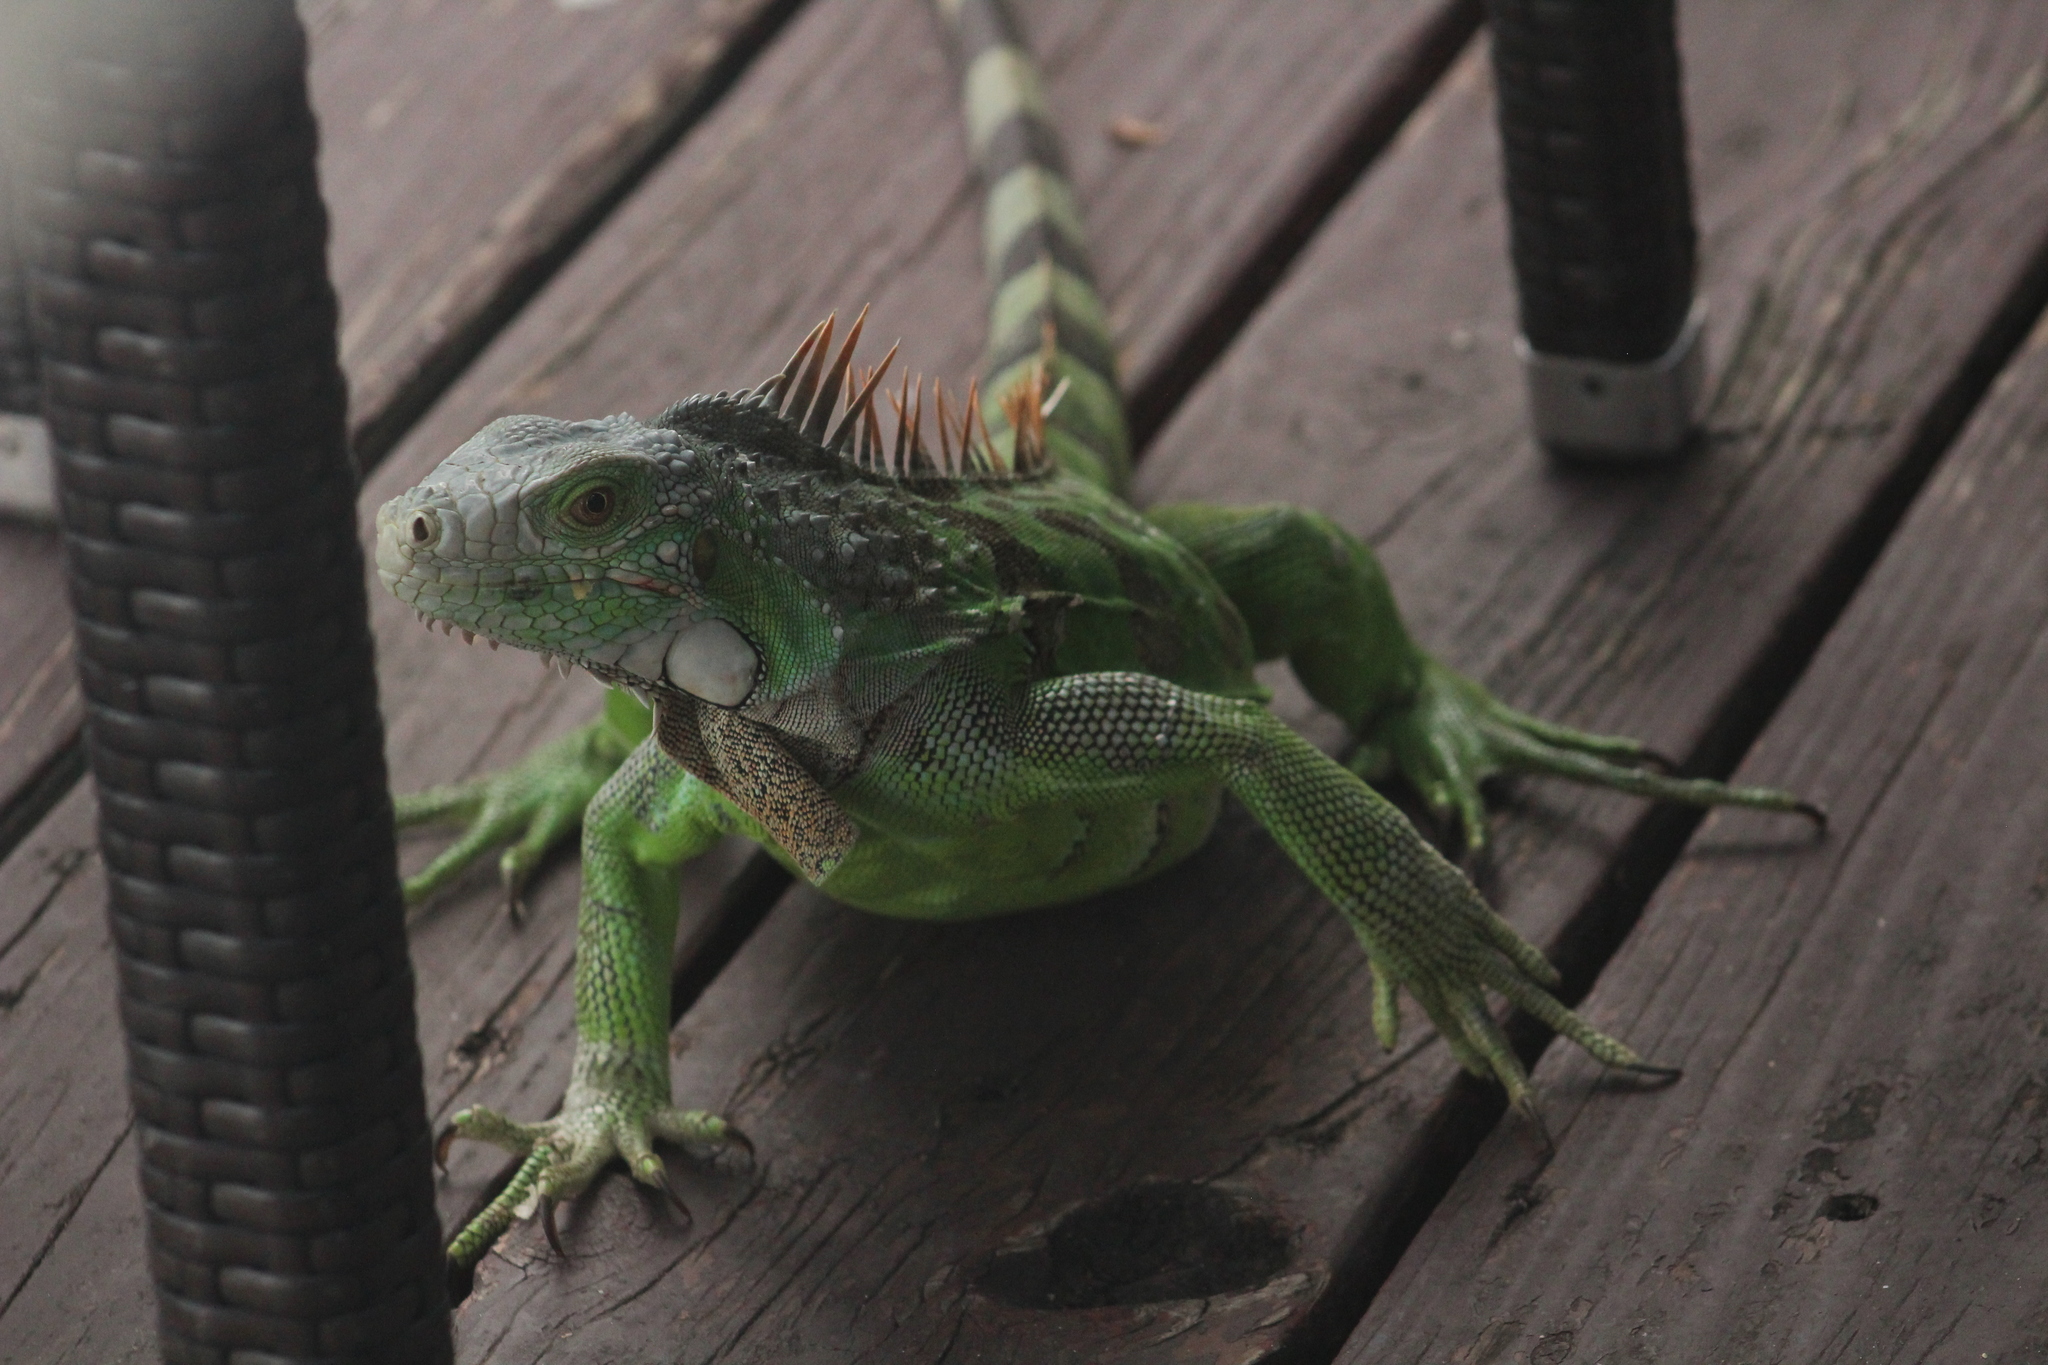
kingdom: Animalia
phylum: Chordata
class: Squamata
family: Iguanidae
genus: Iguana
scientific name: Iguana iguana
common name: Green iguana
